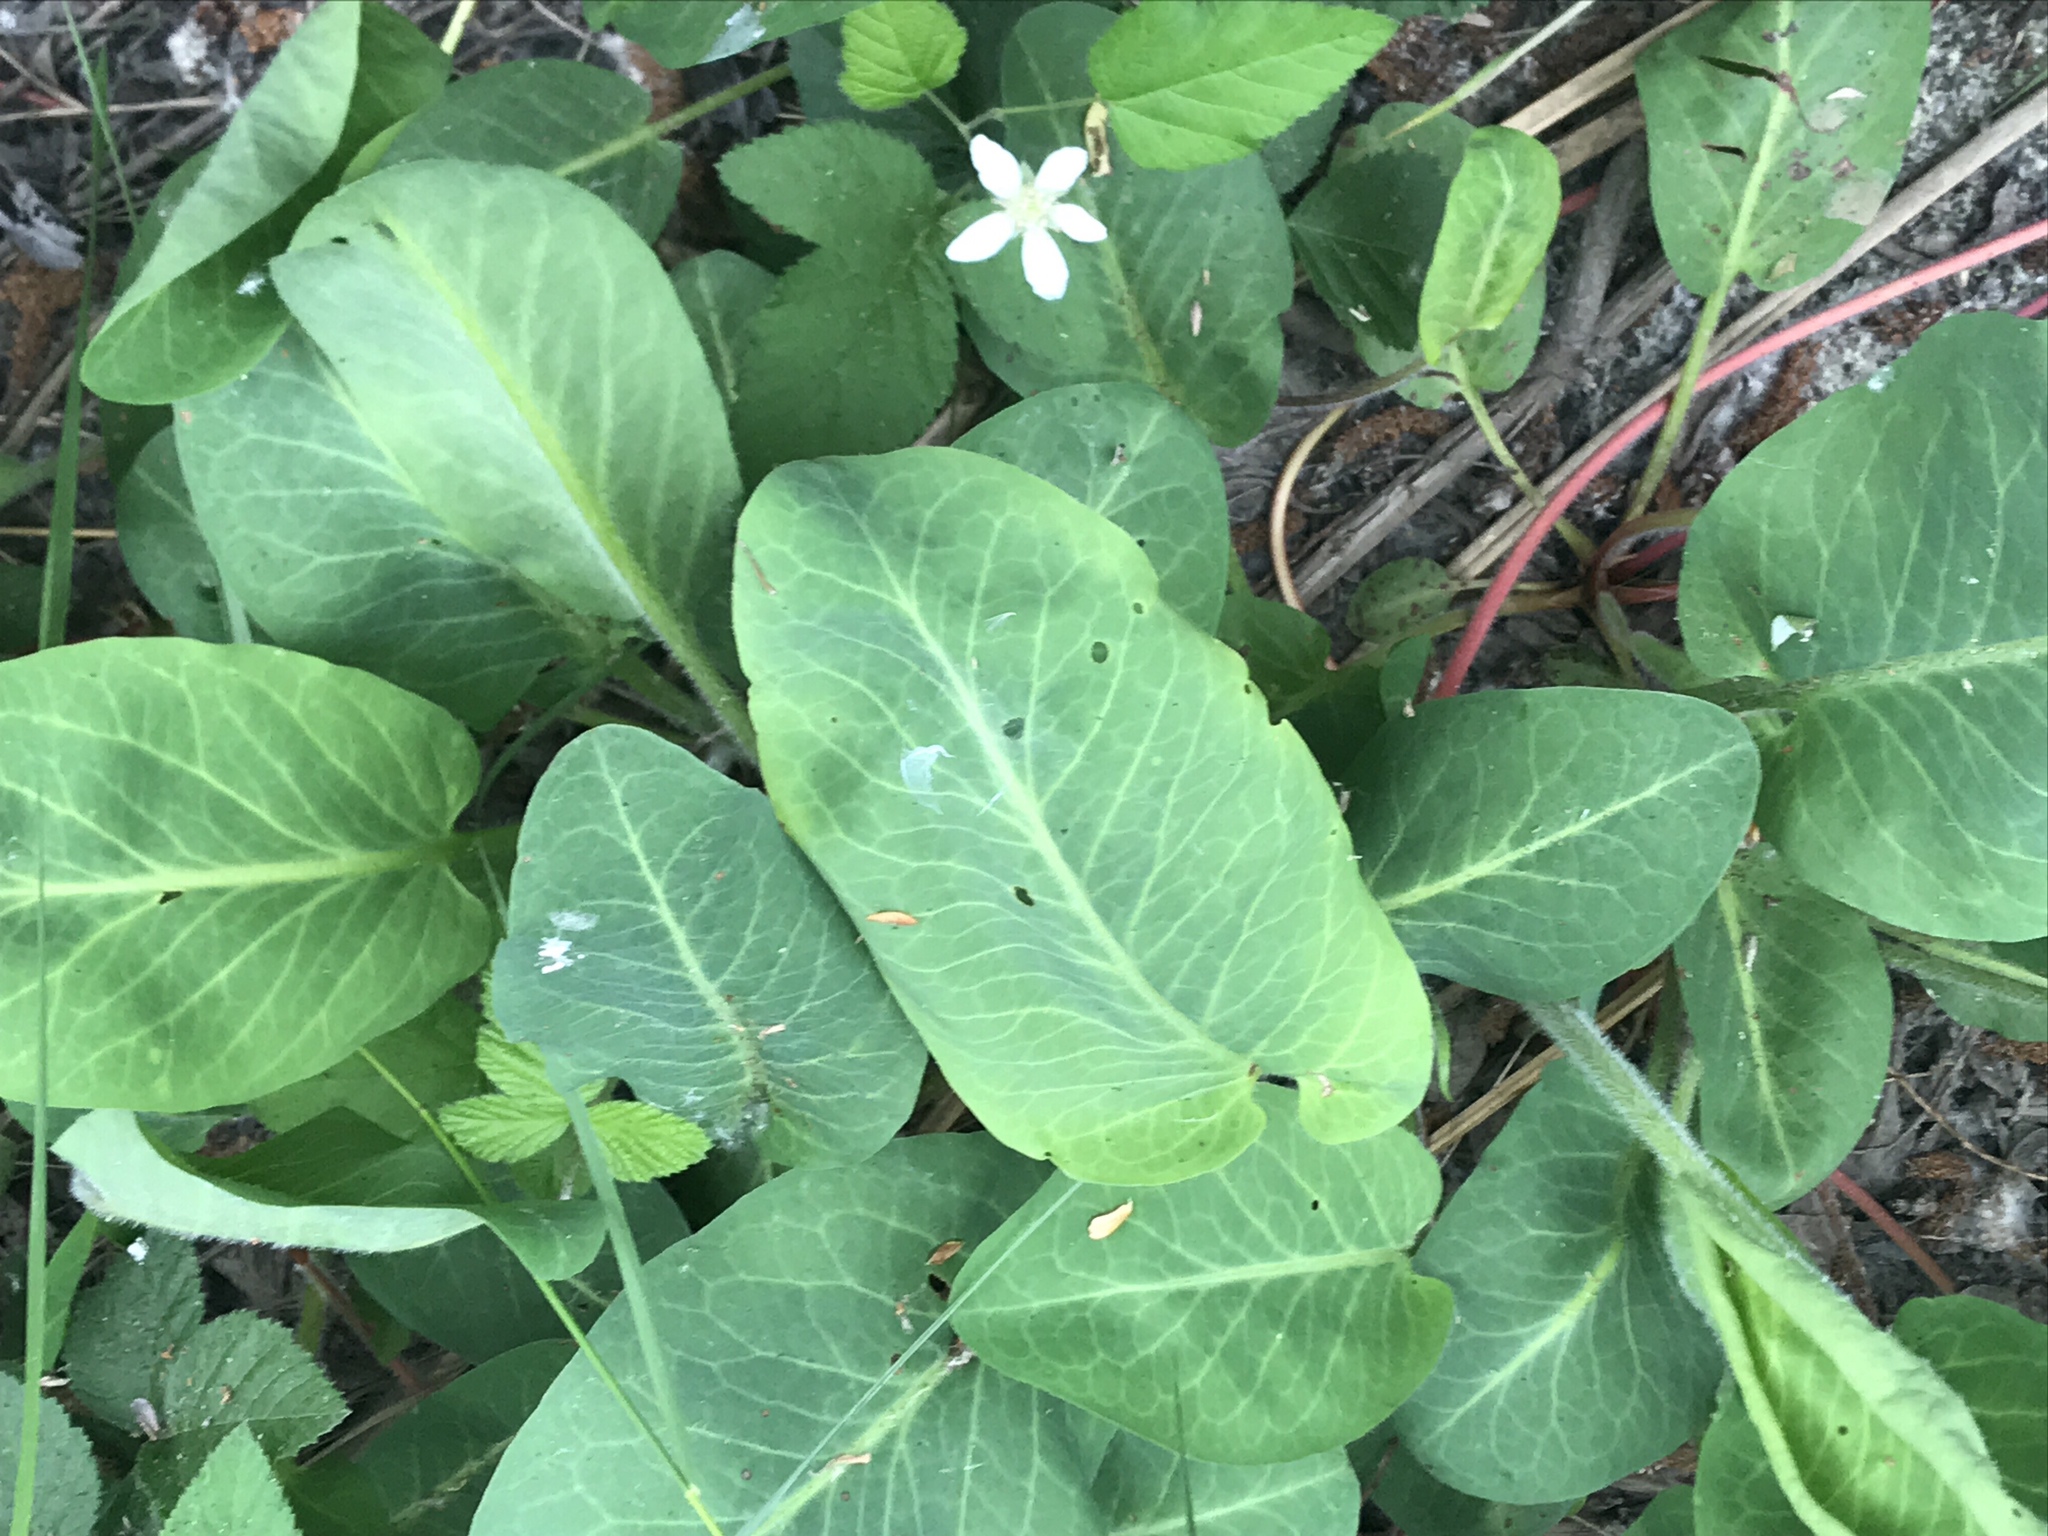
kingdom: Plantae
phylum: Tracheophyta
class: Magnoliopsida
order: Piperales
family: Saururaceae
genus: Anemopsis
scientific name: Anemopsis californica
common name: Apache-beads
